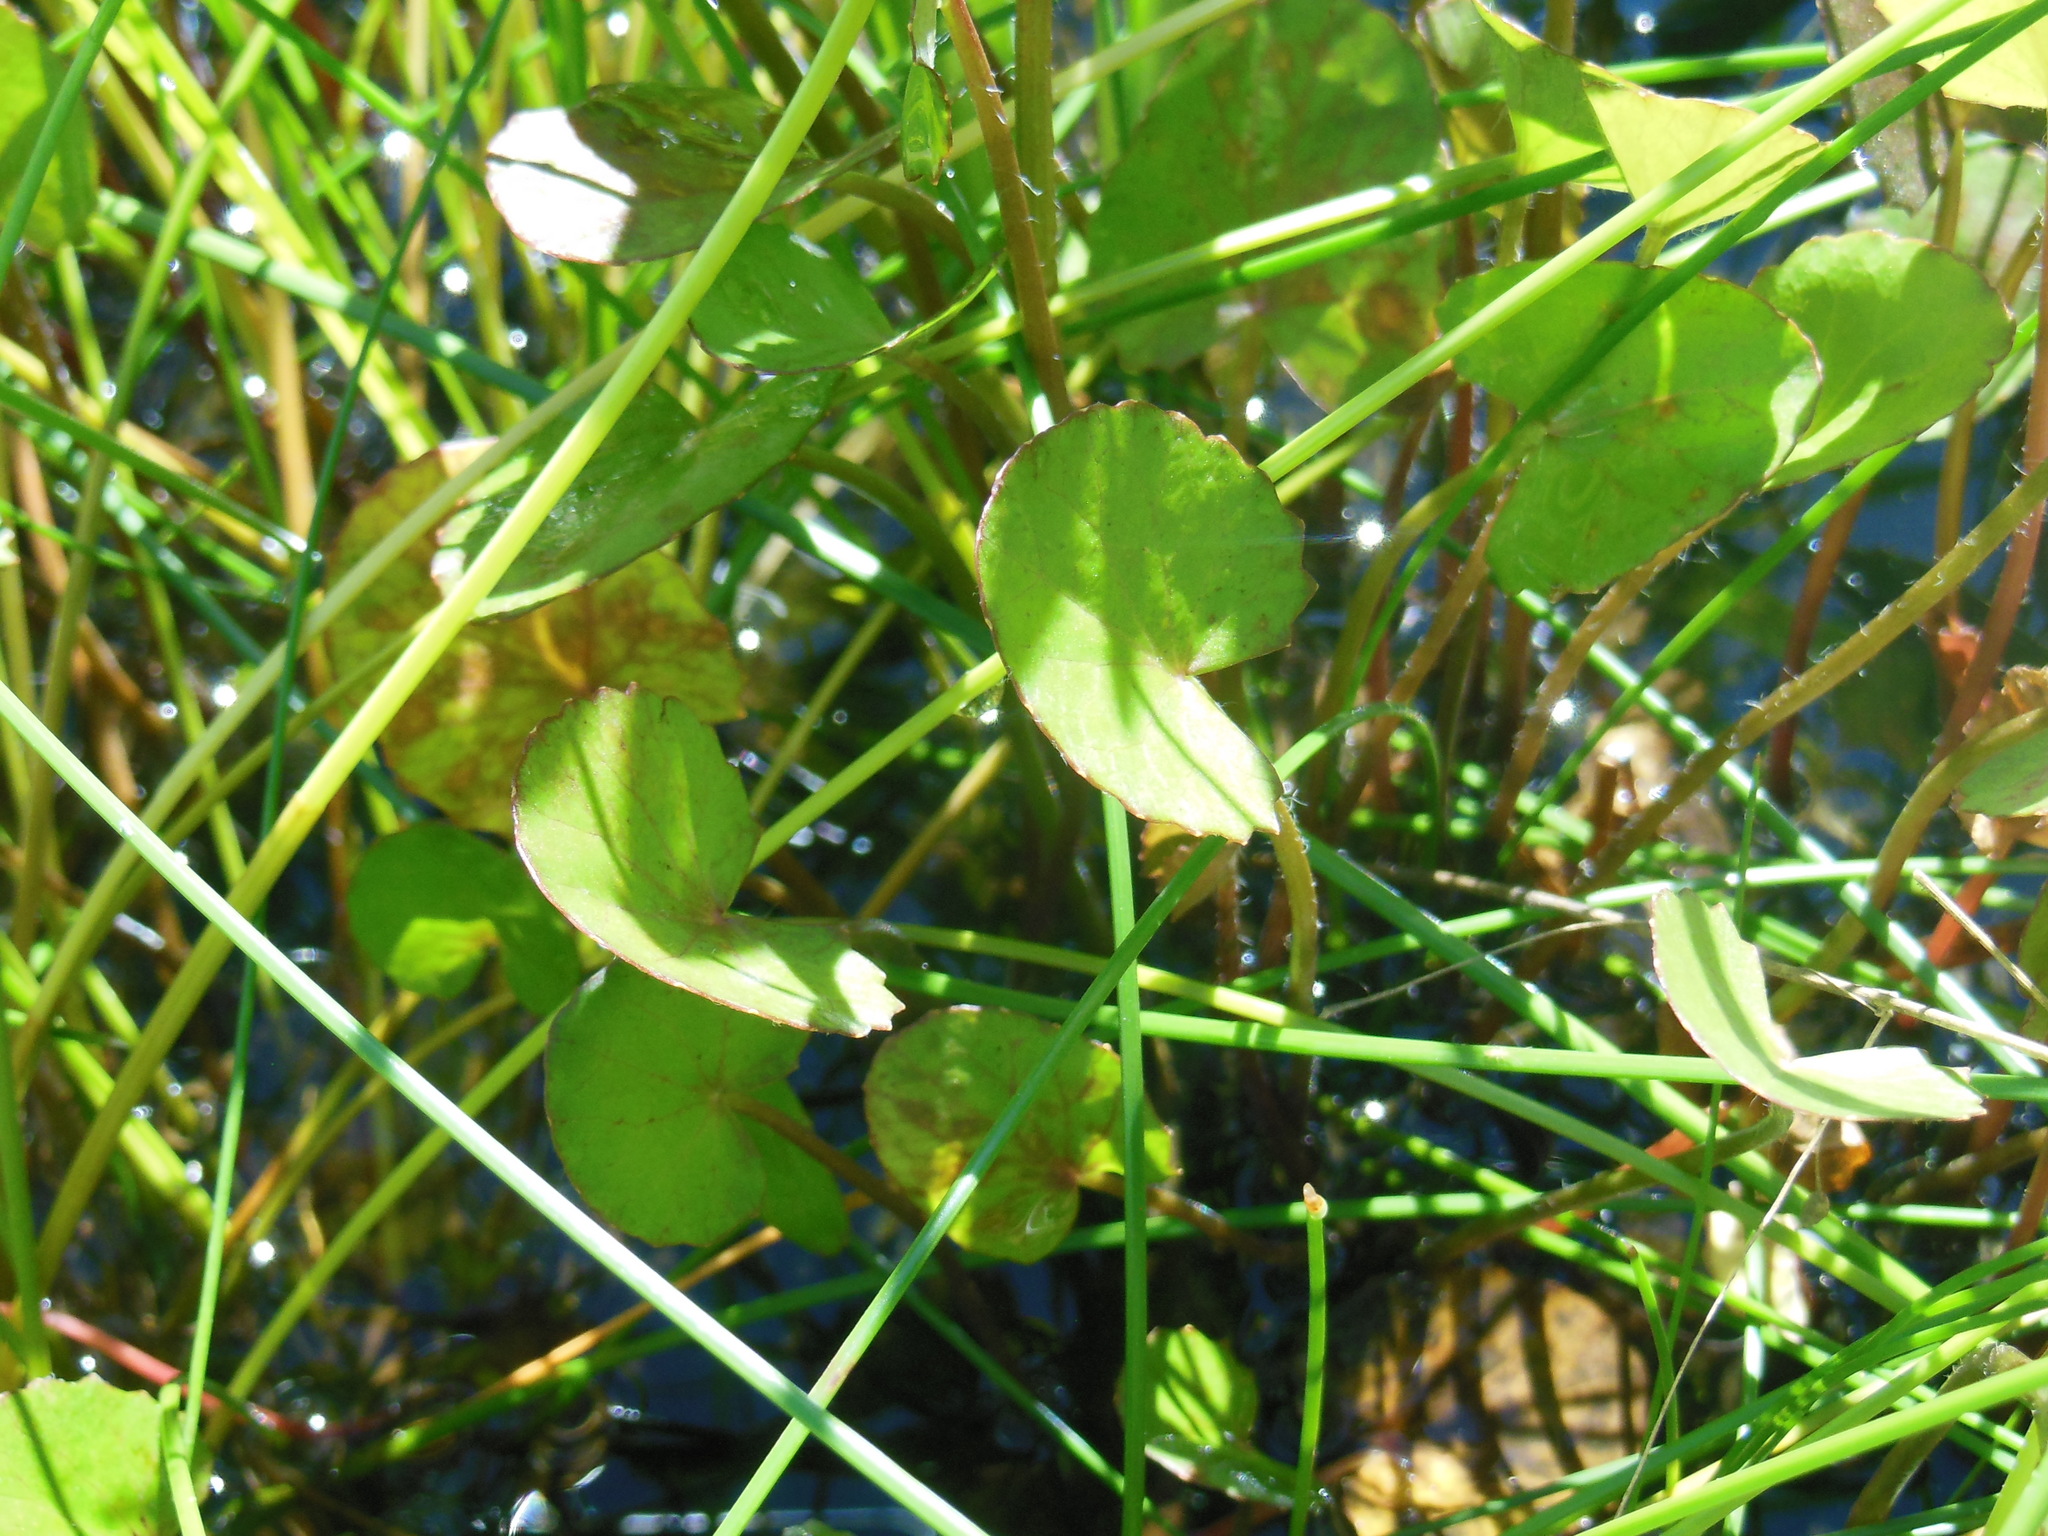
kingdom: Plantae
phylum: Tracheophyta
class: Magnoliopsida
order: Apiales
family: Apiaceae
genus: Centella
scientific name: Centella erecta
